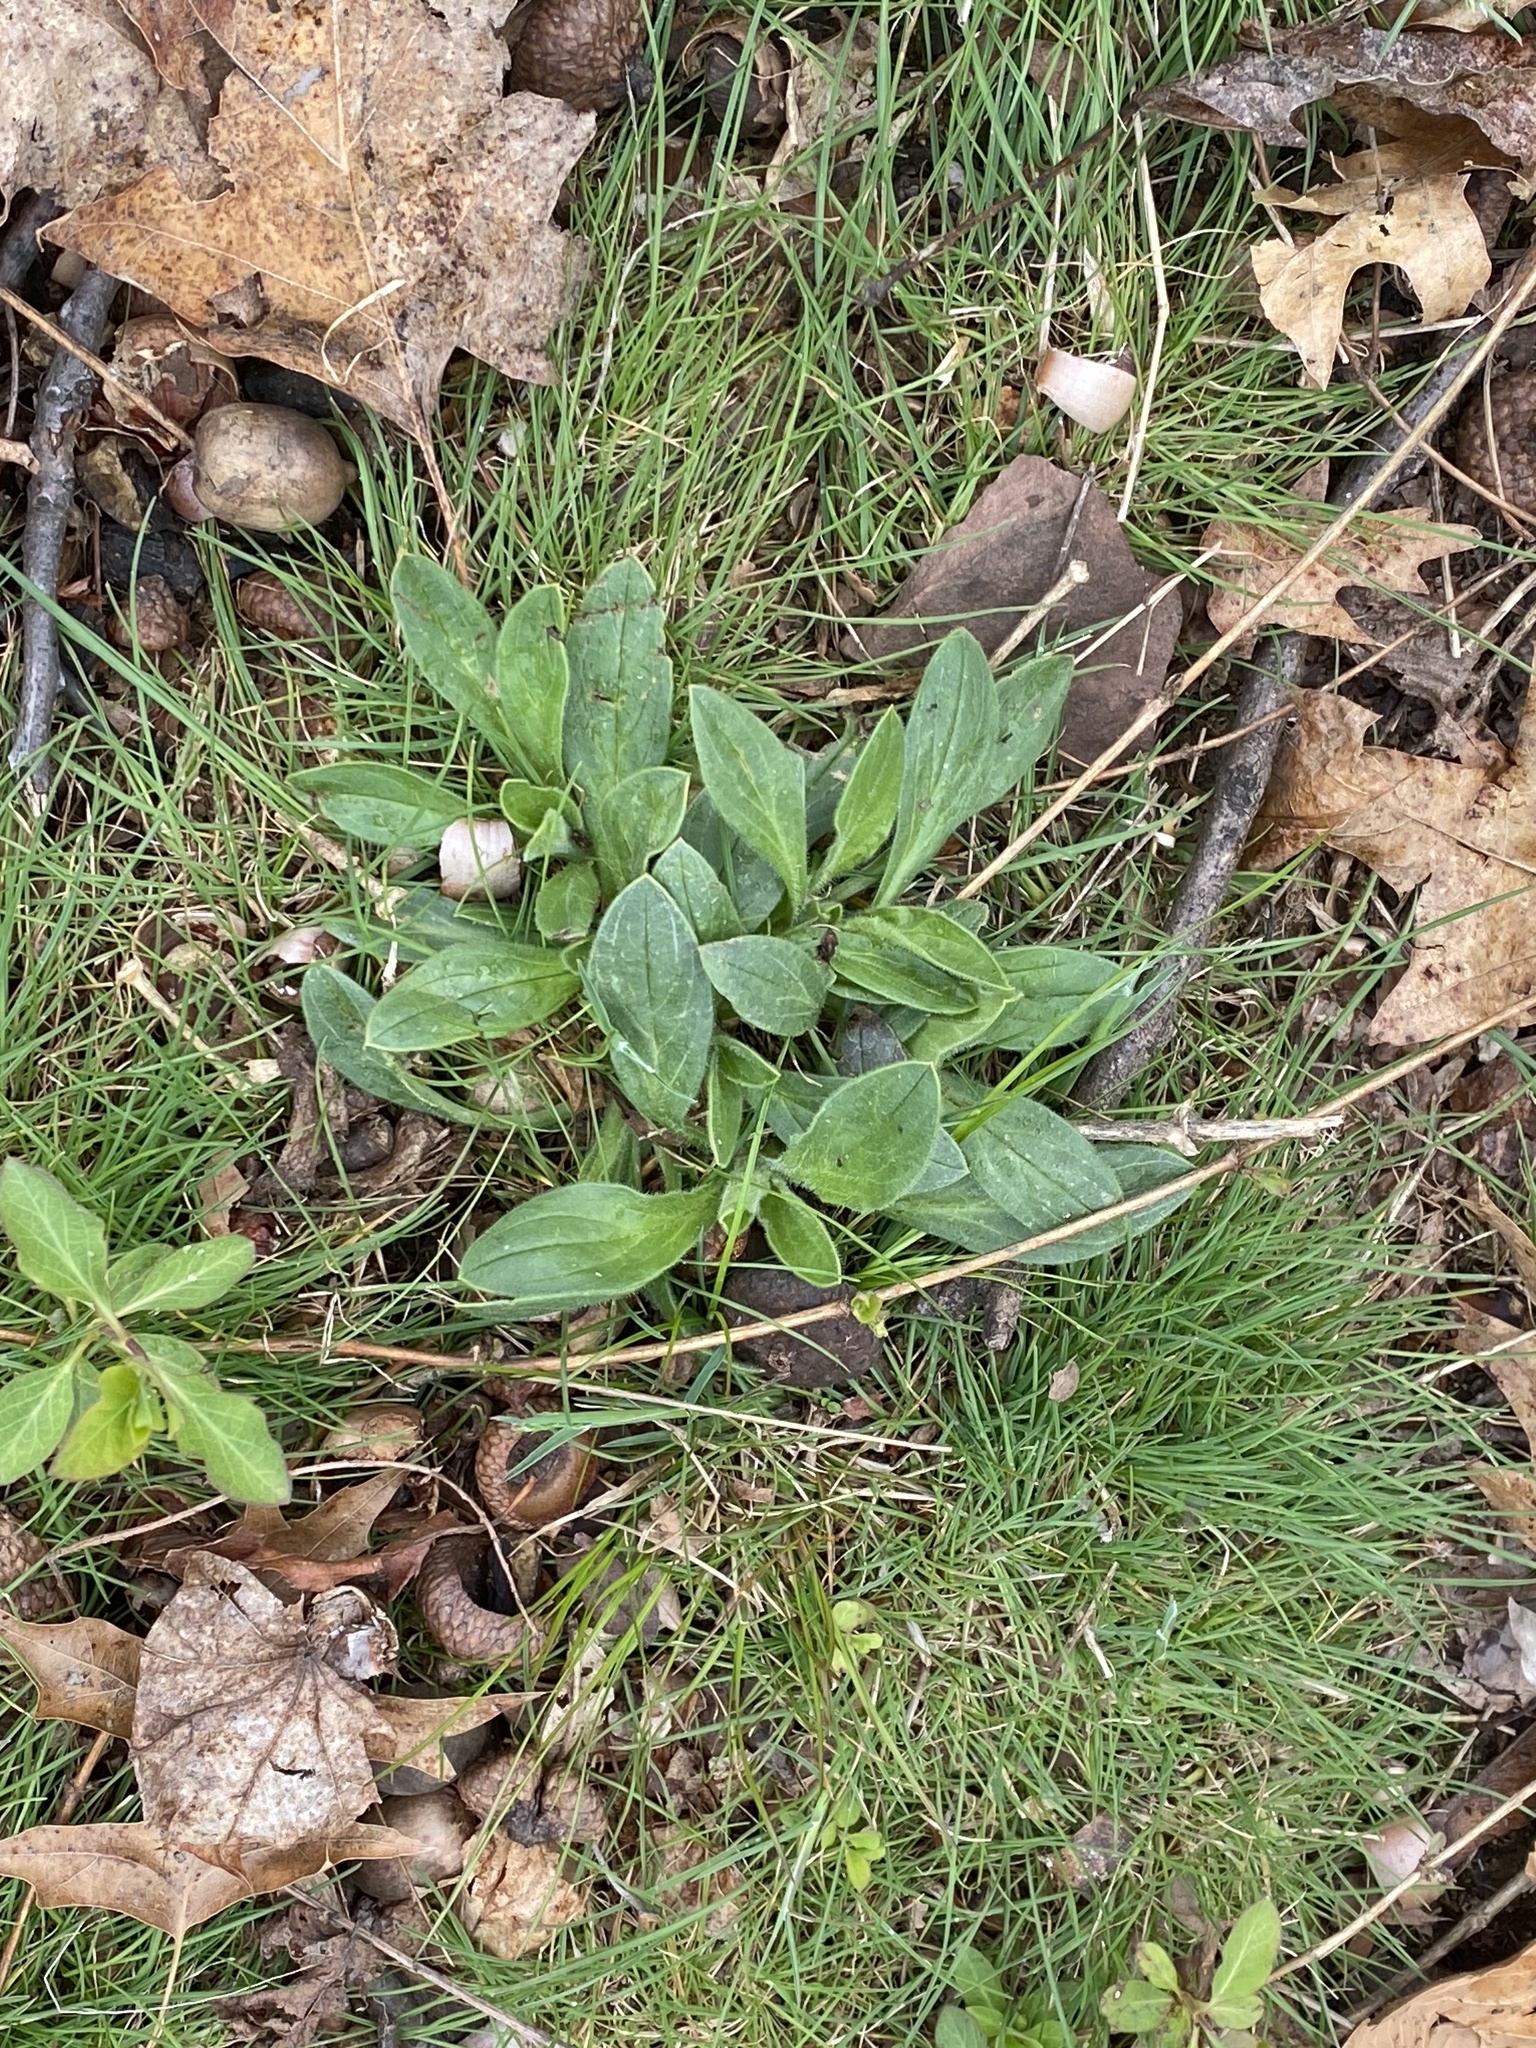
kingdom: Plantae
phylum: Tracheophyta
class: Magnoliopsida
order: Caryophyllales
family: Caryophyllaceae
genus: Silene
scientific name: Silene latifolia
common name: White campion
